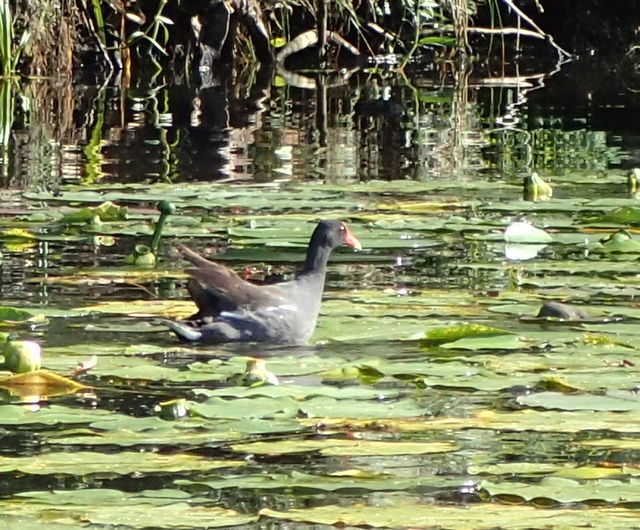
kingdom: Animalia
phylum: Chordata
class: Aves
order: Gruiformes
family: Rallidae
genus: Gallinula
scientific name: Gallinula chloropus
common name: Common moorhen
